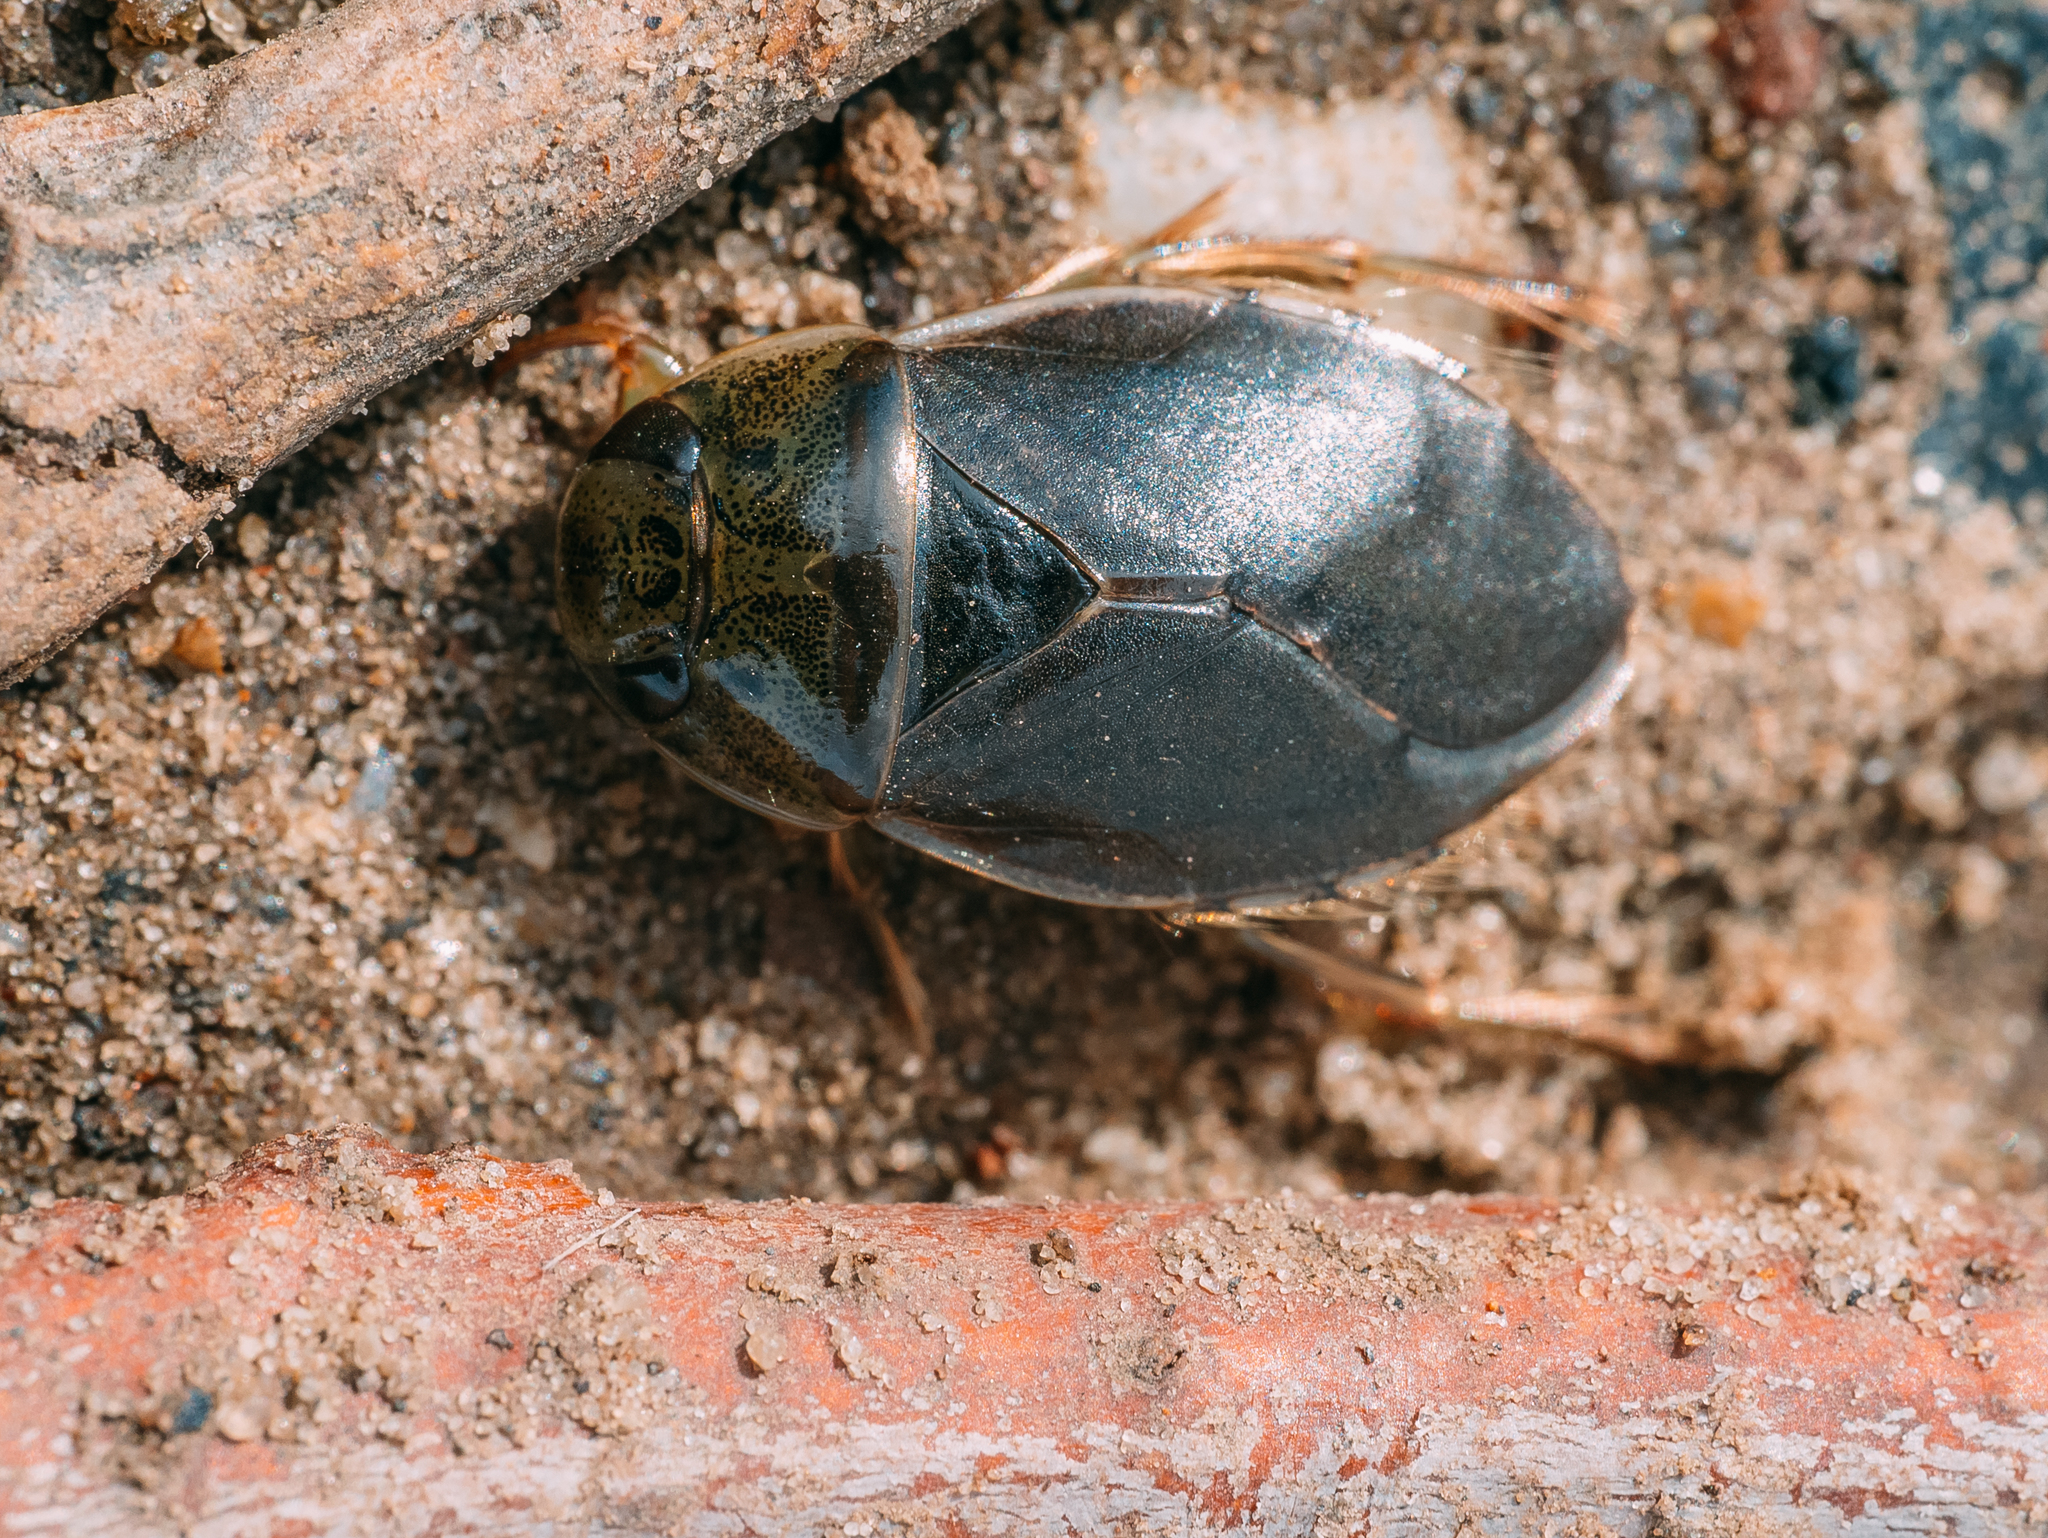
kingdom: Animalia
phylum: Arthropoda
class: Insecta
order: Hemiptera
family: Naucoridae
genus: Ilyocoris
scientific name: Ilyocoris cimicoides
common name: Saucer bugs
